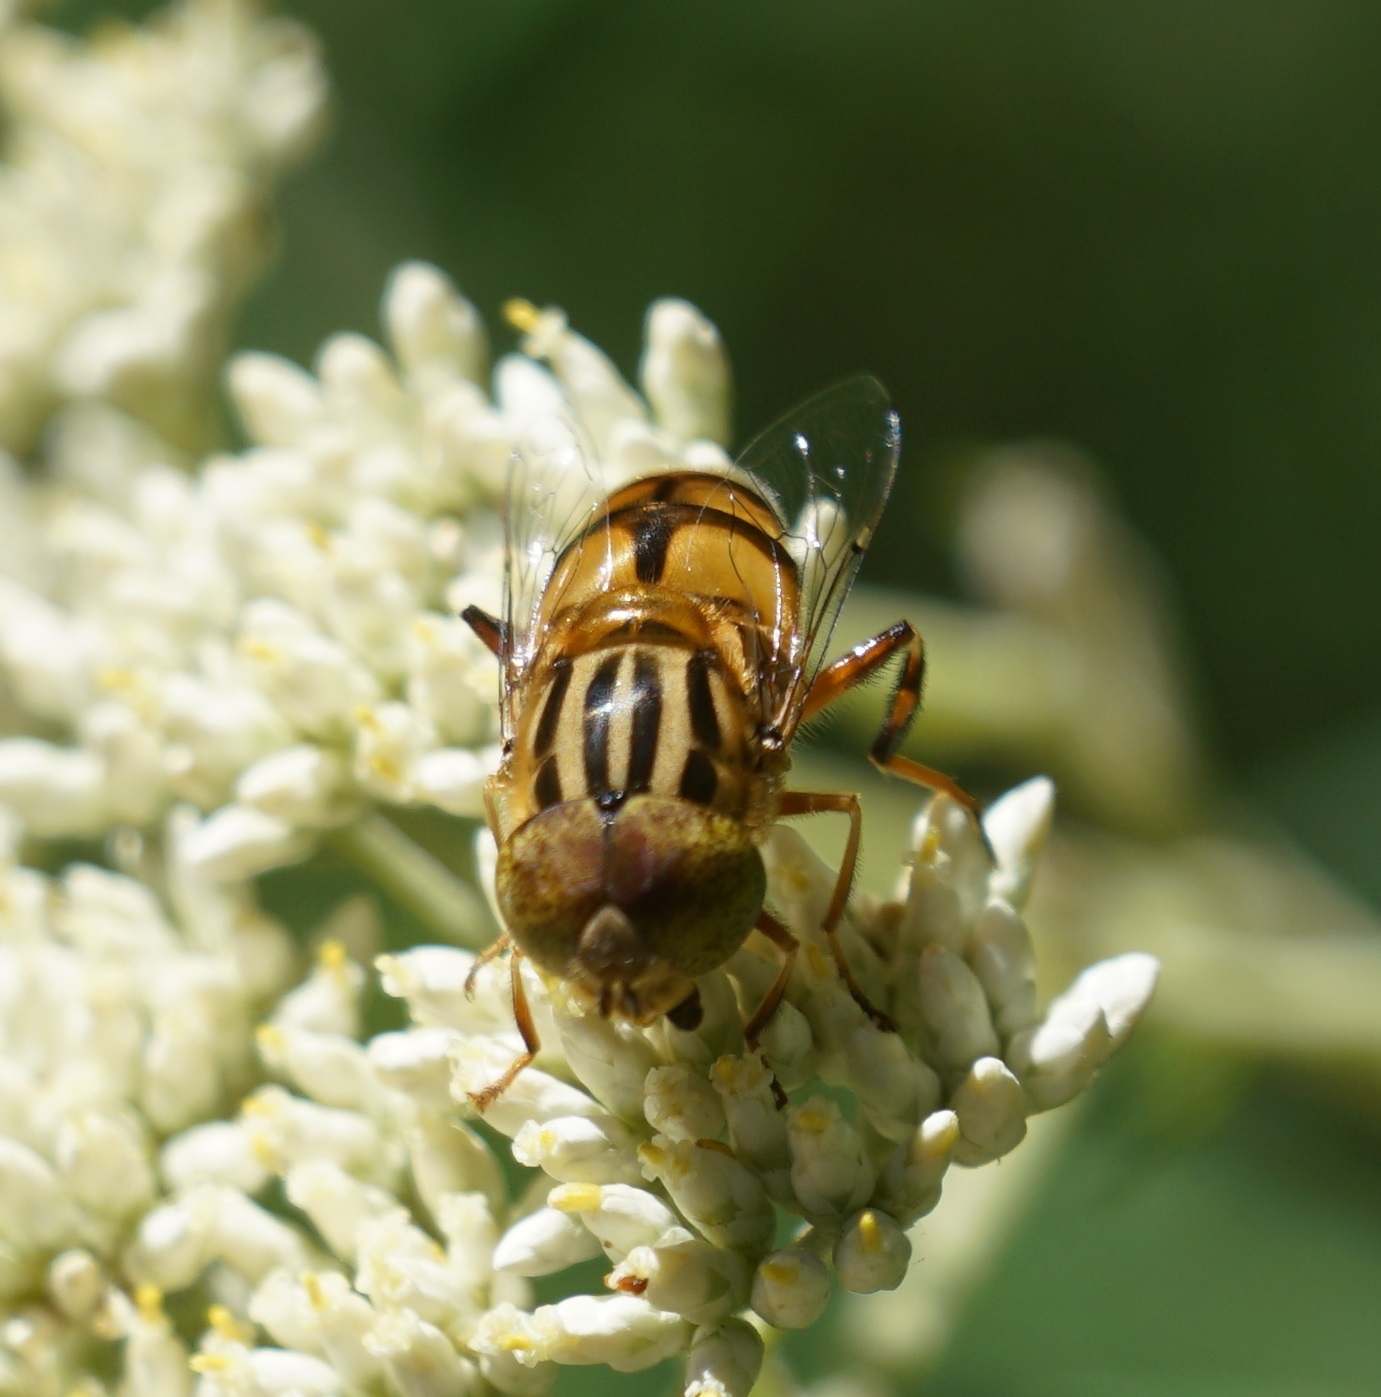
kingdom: Animalia
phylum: Arthropoda
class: Insecta
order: Diptera
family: Syrphidae
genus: Eristalinus
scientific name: Eristalinus punctulatus
